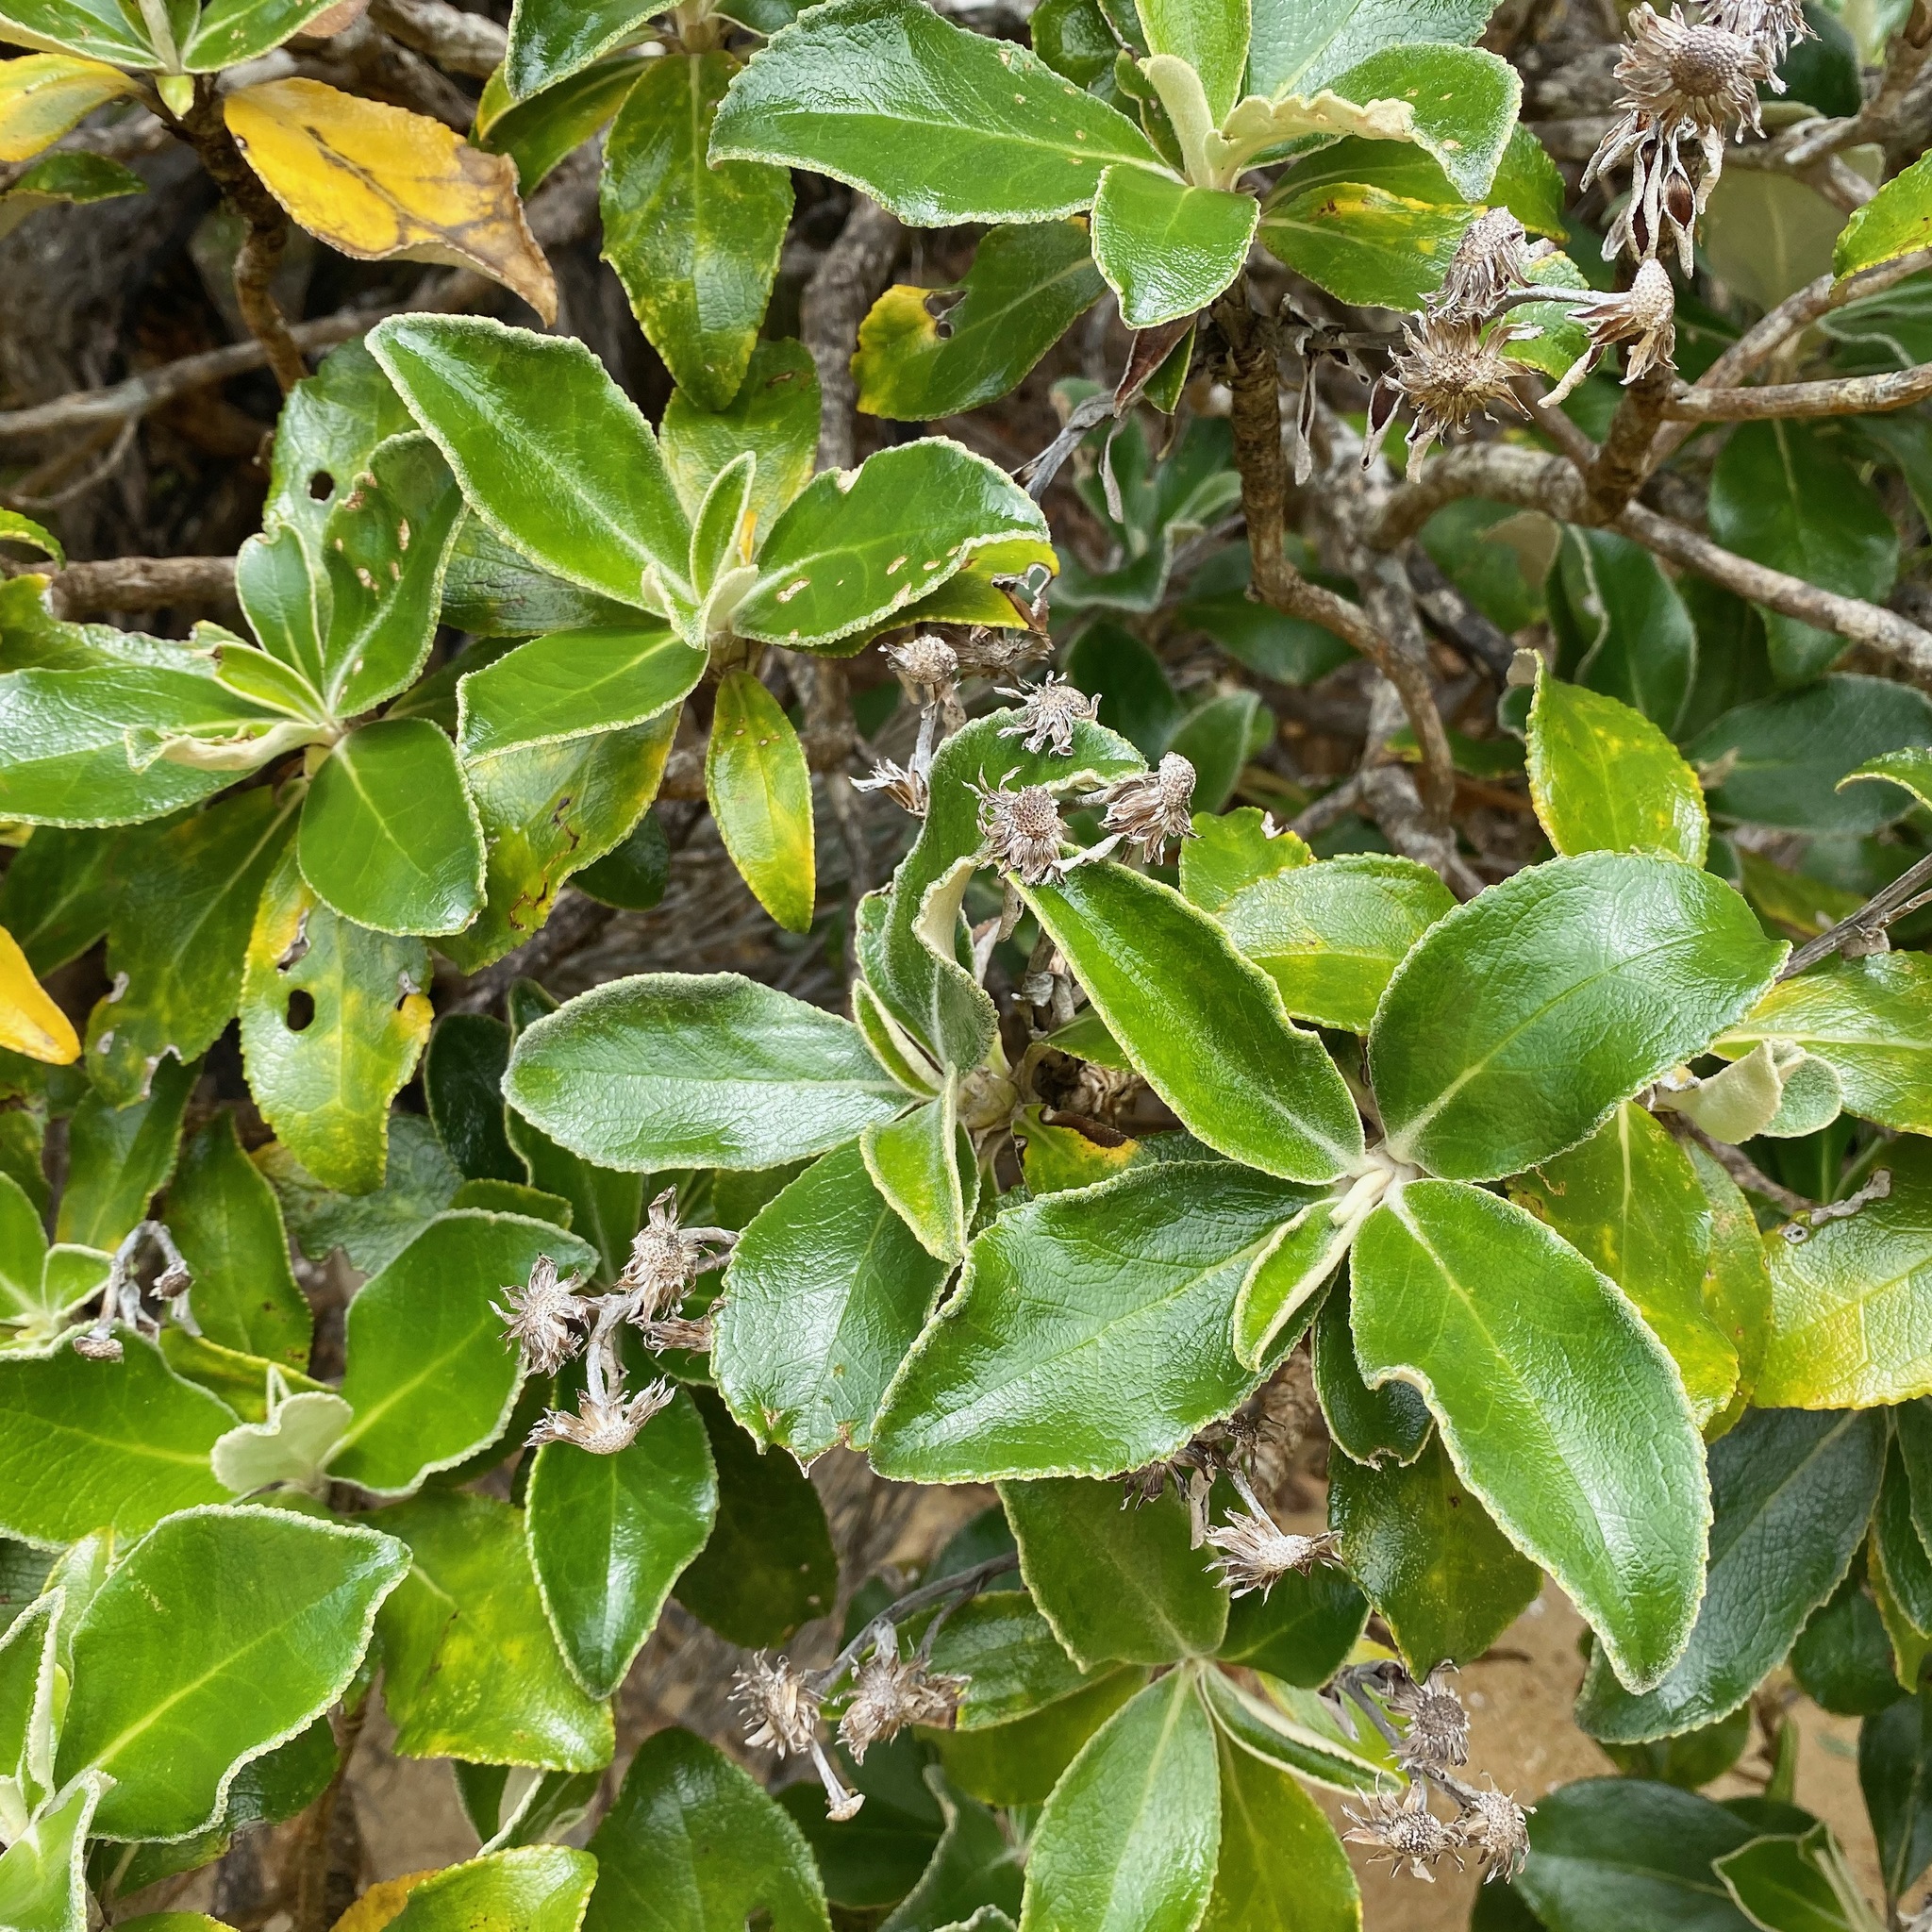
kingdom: Plantae
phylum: Tracheophyta
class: Magnoliopsida
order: Asterales
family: Asteraceae
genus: Macrolearia
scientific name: Macrolearia colensoi
